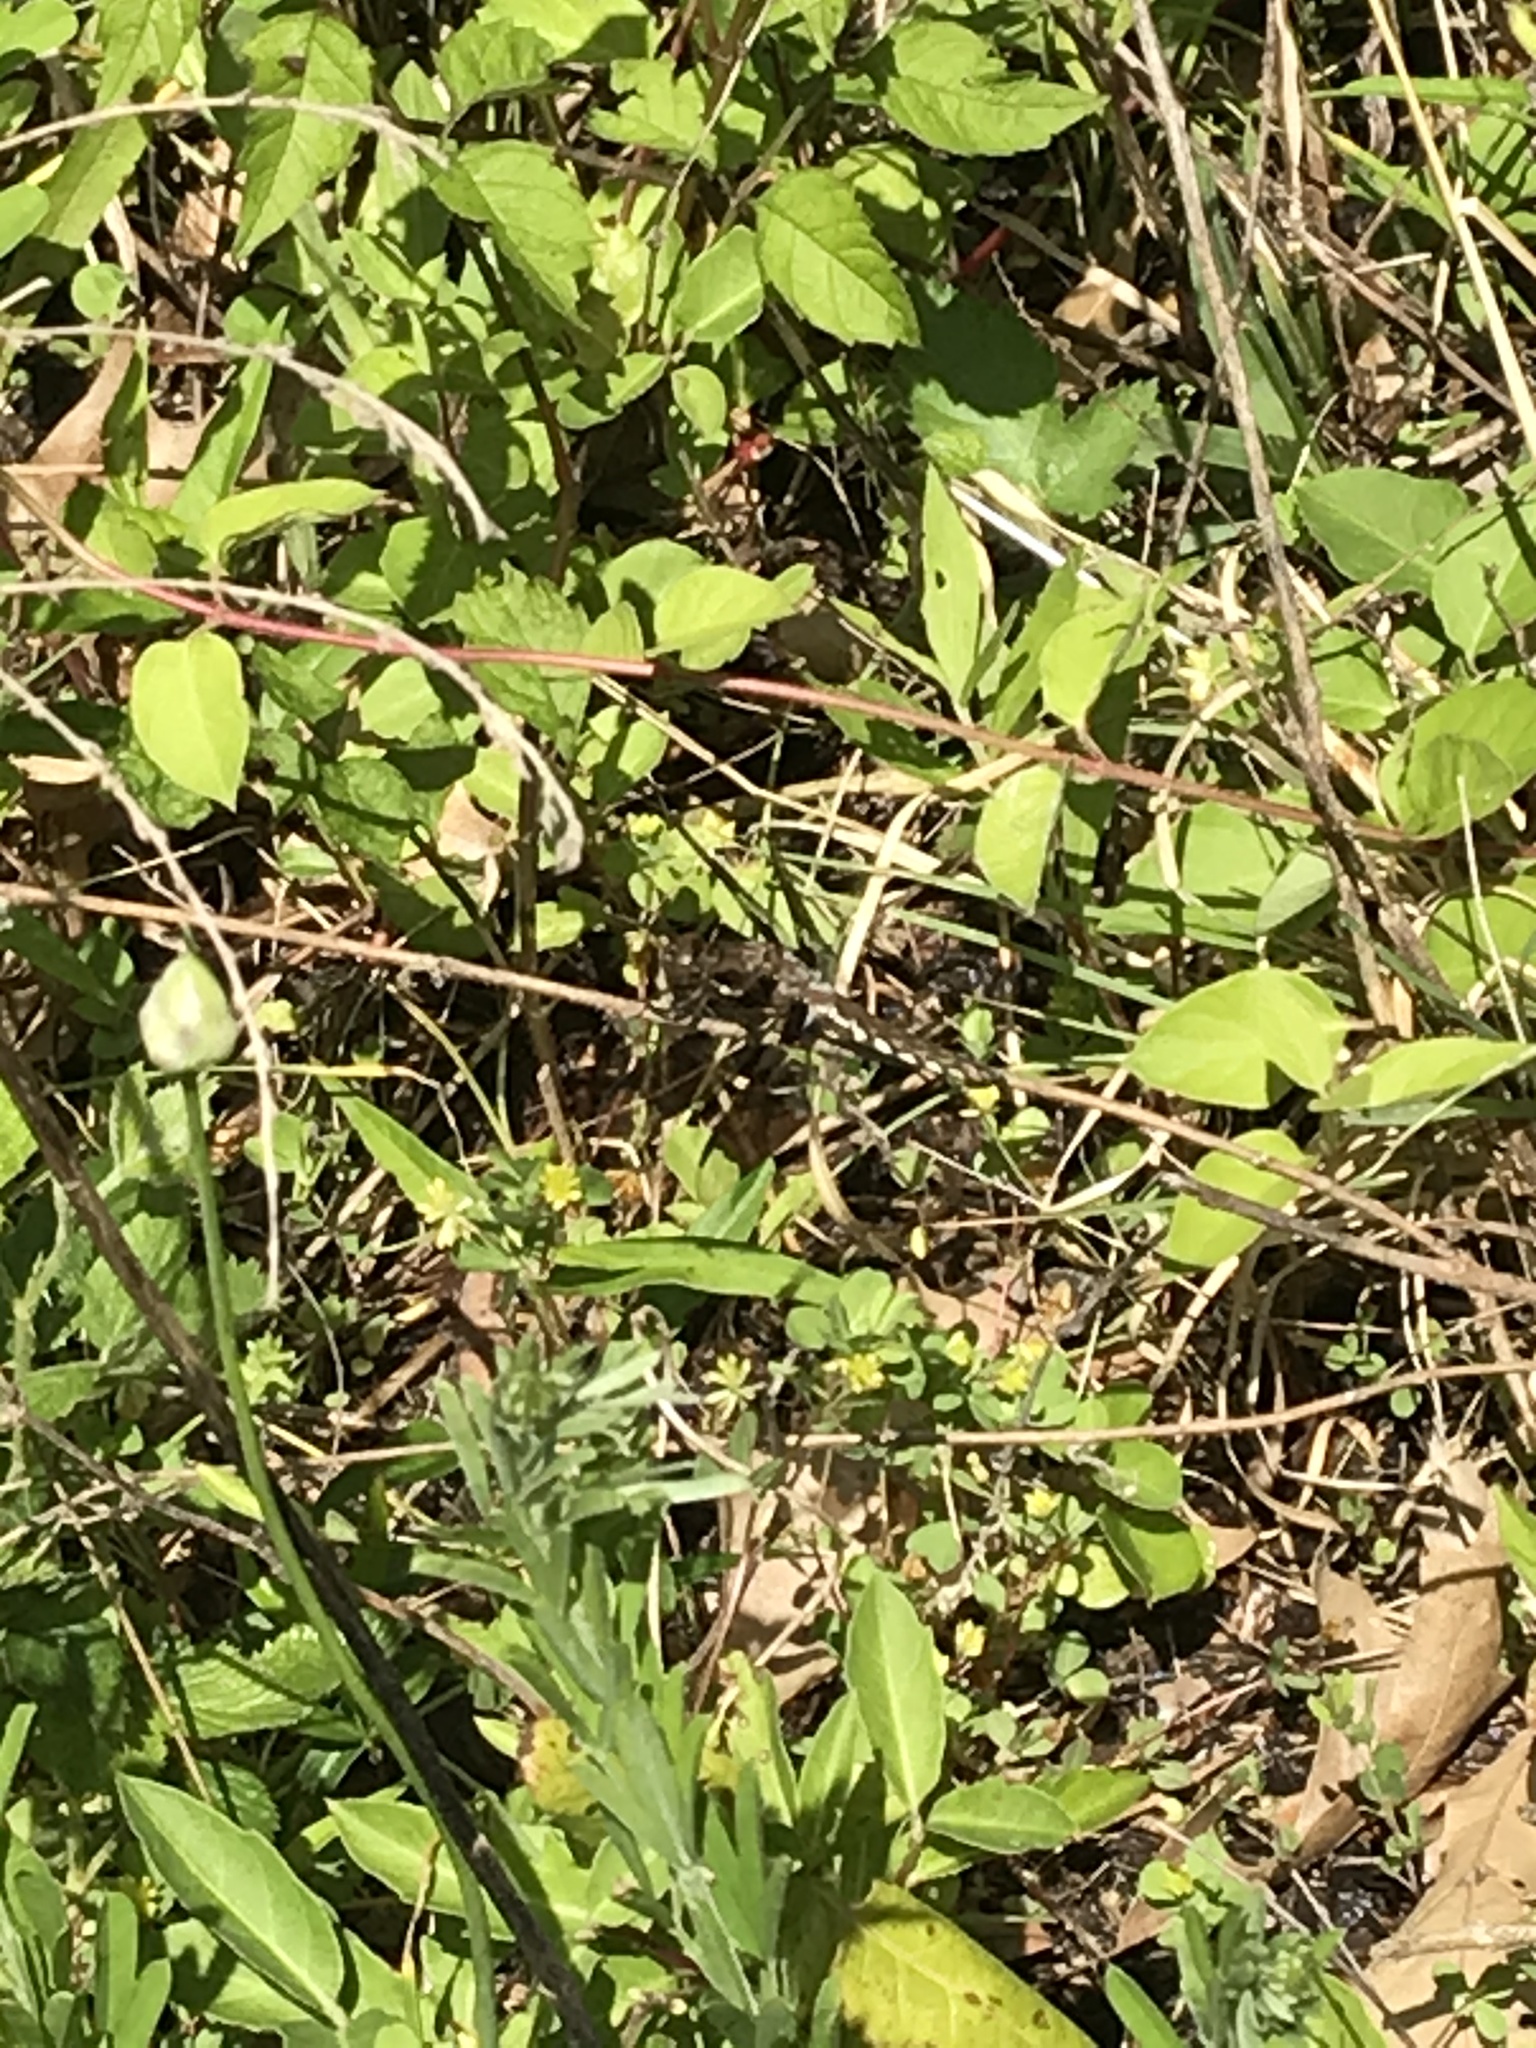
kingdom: Animalia
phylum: Arthropoda
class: Insecta
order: Odonata
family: Libellulidae
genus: Plathemis
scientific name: Plathemis lydia
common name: Common whitetail
